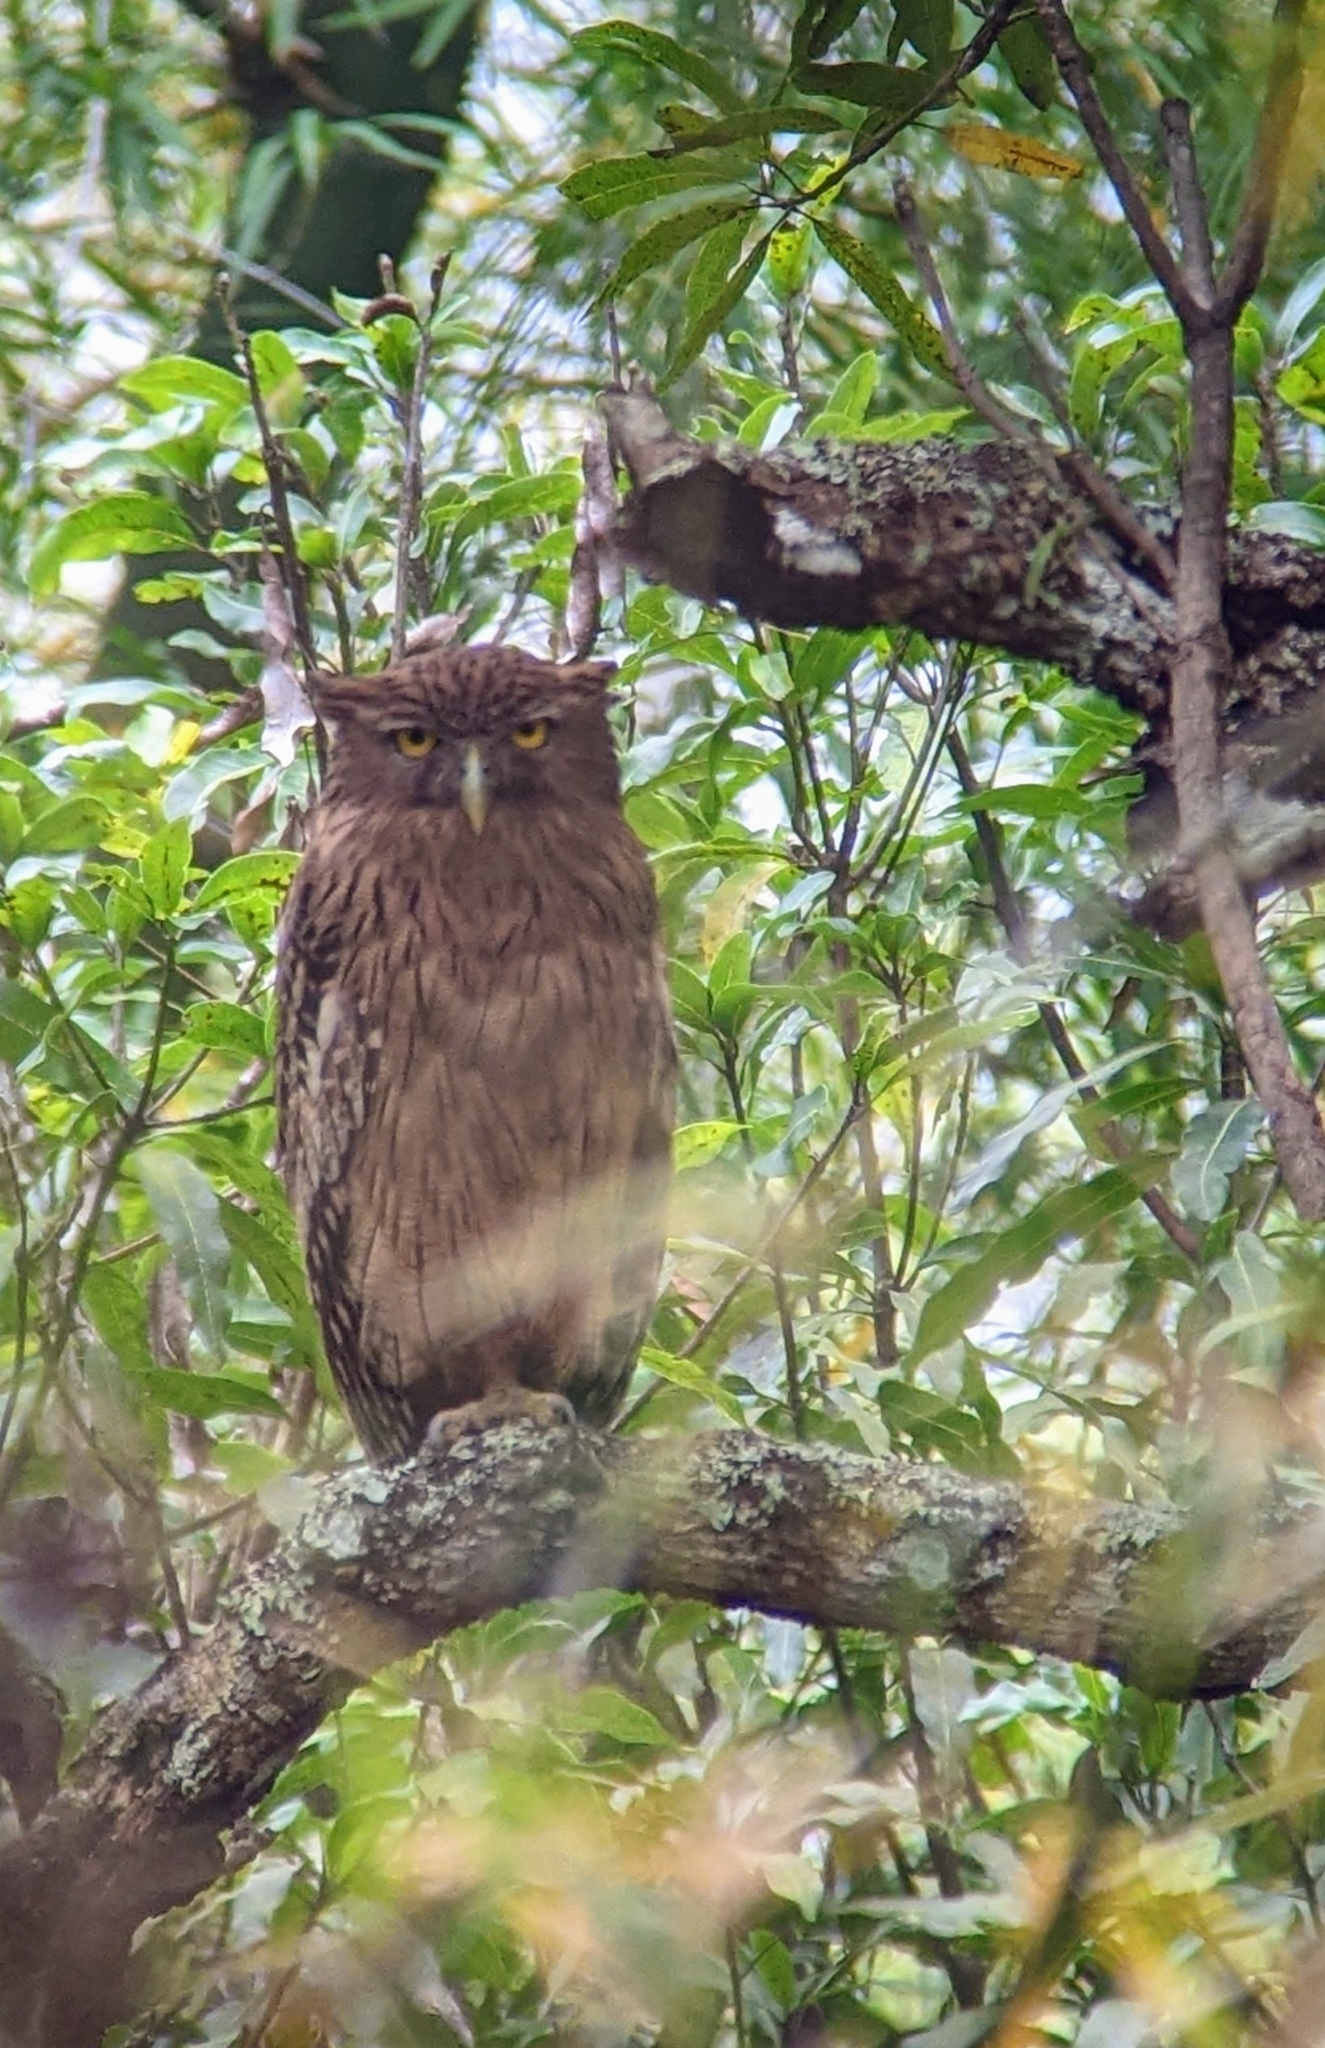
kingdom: Animalia
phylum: Chordata
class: Aves
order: Strigiformes
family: Strigidae
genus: Ketupa
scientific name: Ketupa zeylonensis
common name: Brown fish owl
